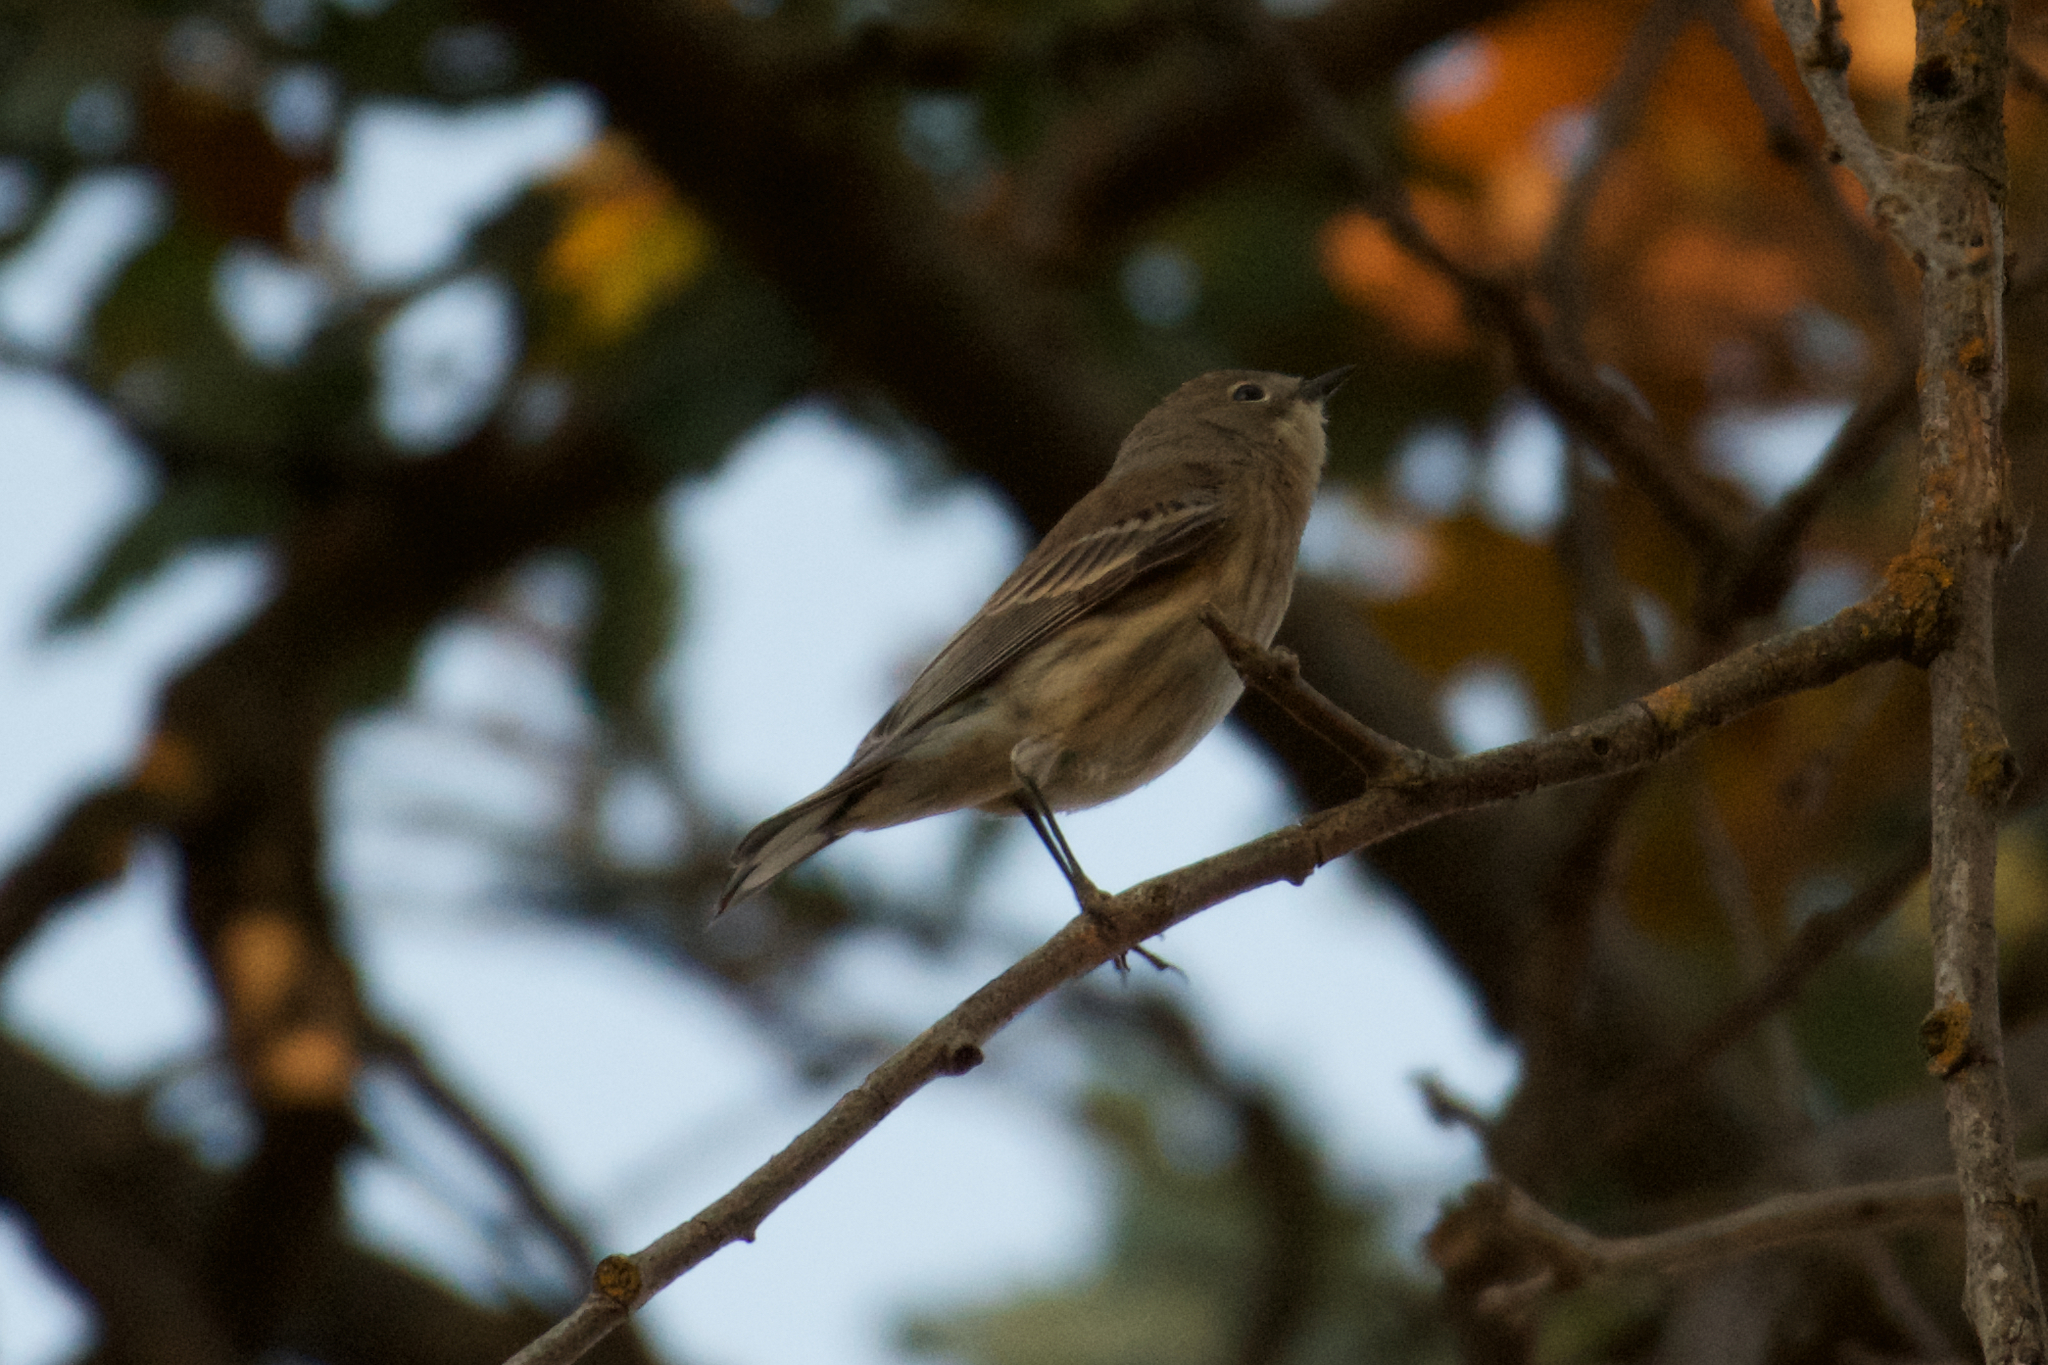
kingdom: Animalia
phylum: Chordata
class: Aves
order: Passeriformes
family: Parulidae
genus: Setophaga
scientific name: Setophaga coronata
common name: Myrtle warbler
